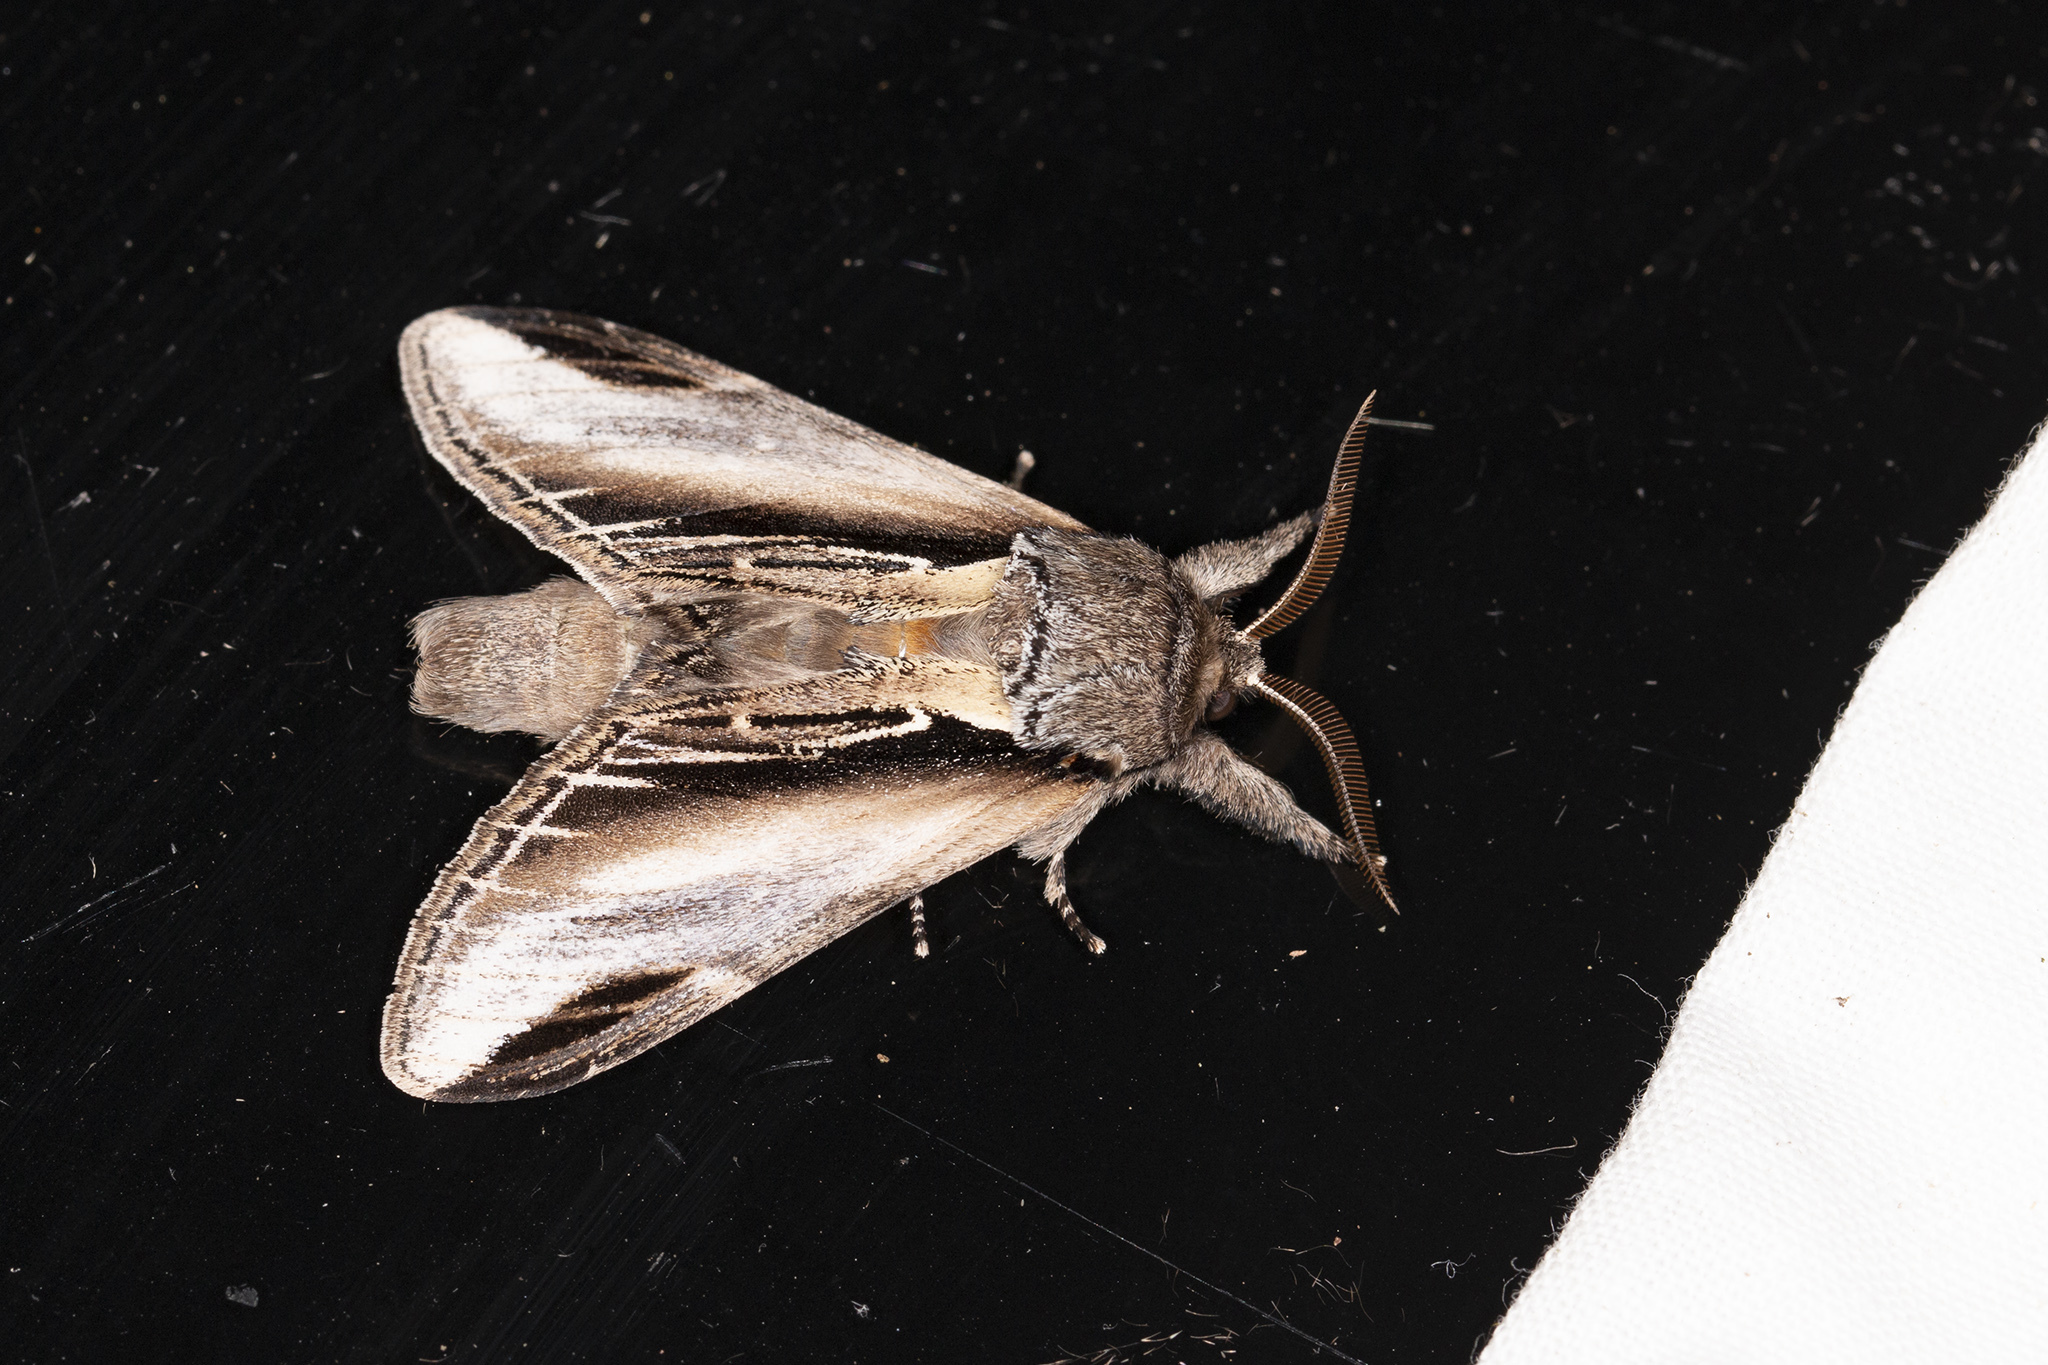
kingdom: Animalia
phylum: Arthropoda
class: Insecta
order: Lepidoptera
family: Notodontidae
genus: Pheosia
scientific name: Pheosia tremula
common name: Swallow prominent
